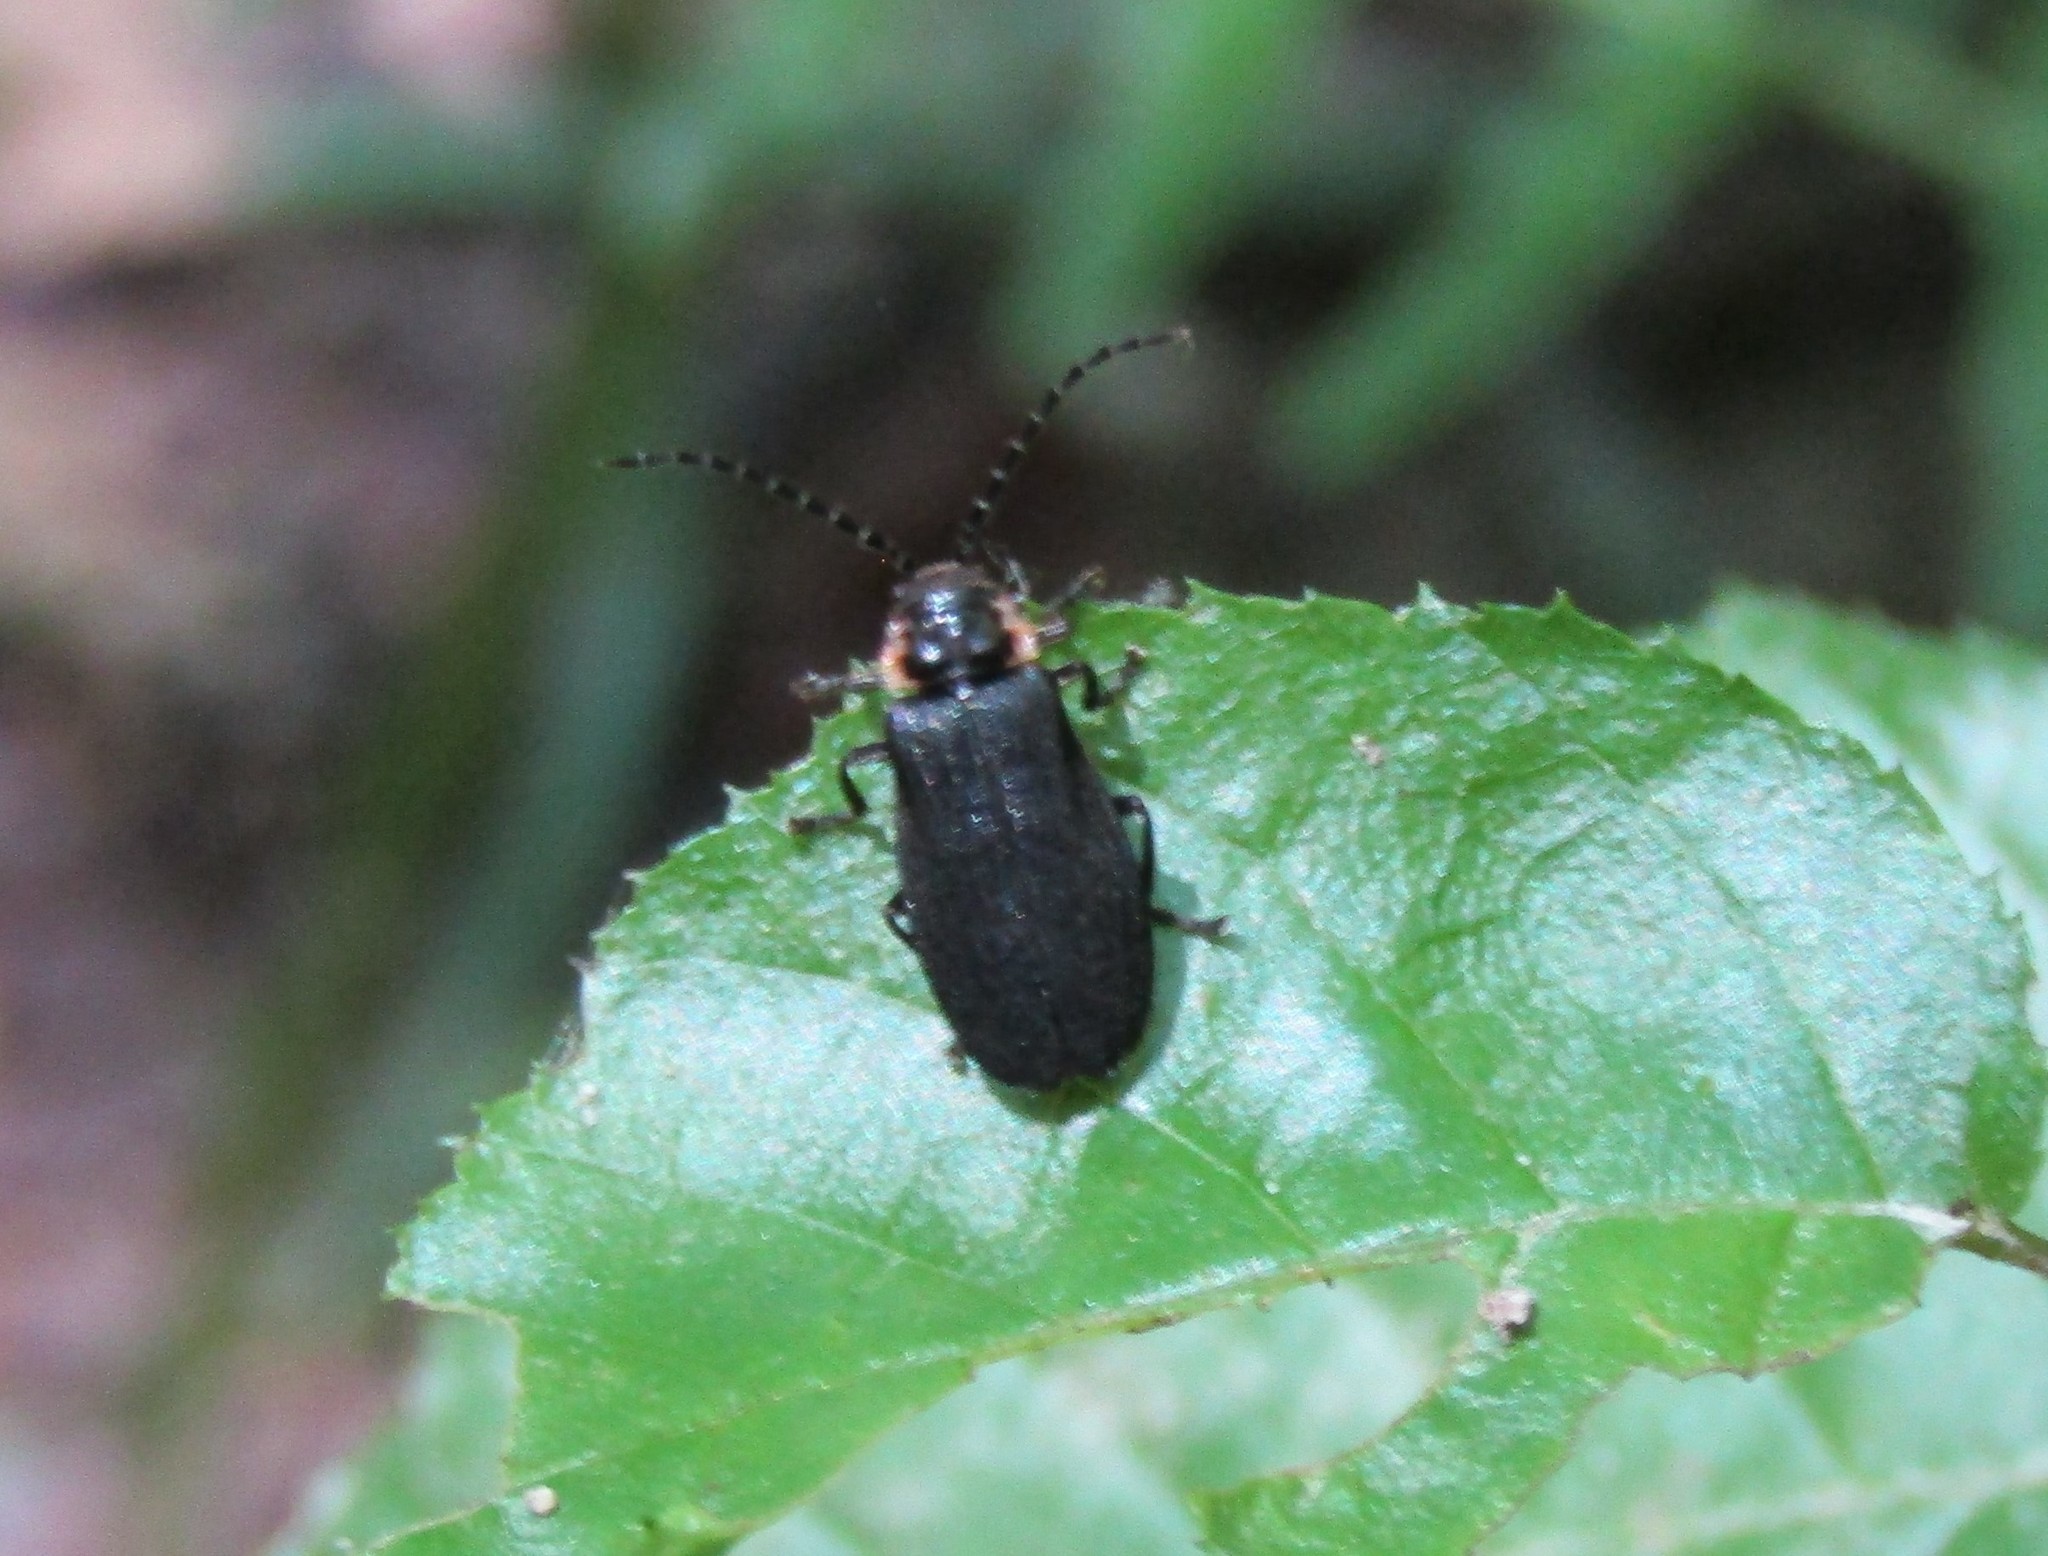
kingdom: Animalia
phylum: Arthropoda
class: Insecta
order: Coleoptera
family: Cantharidae
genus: Polemius
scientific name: Polemius laticornis
